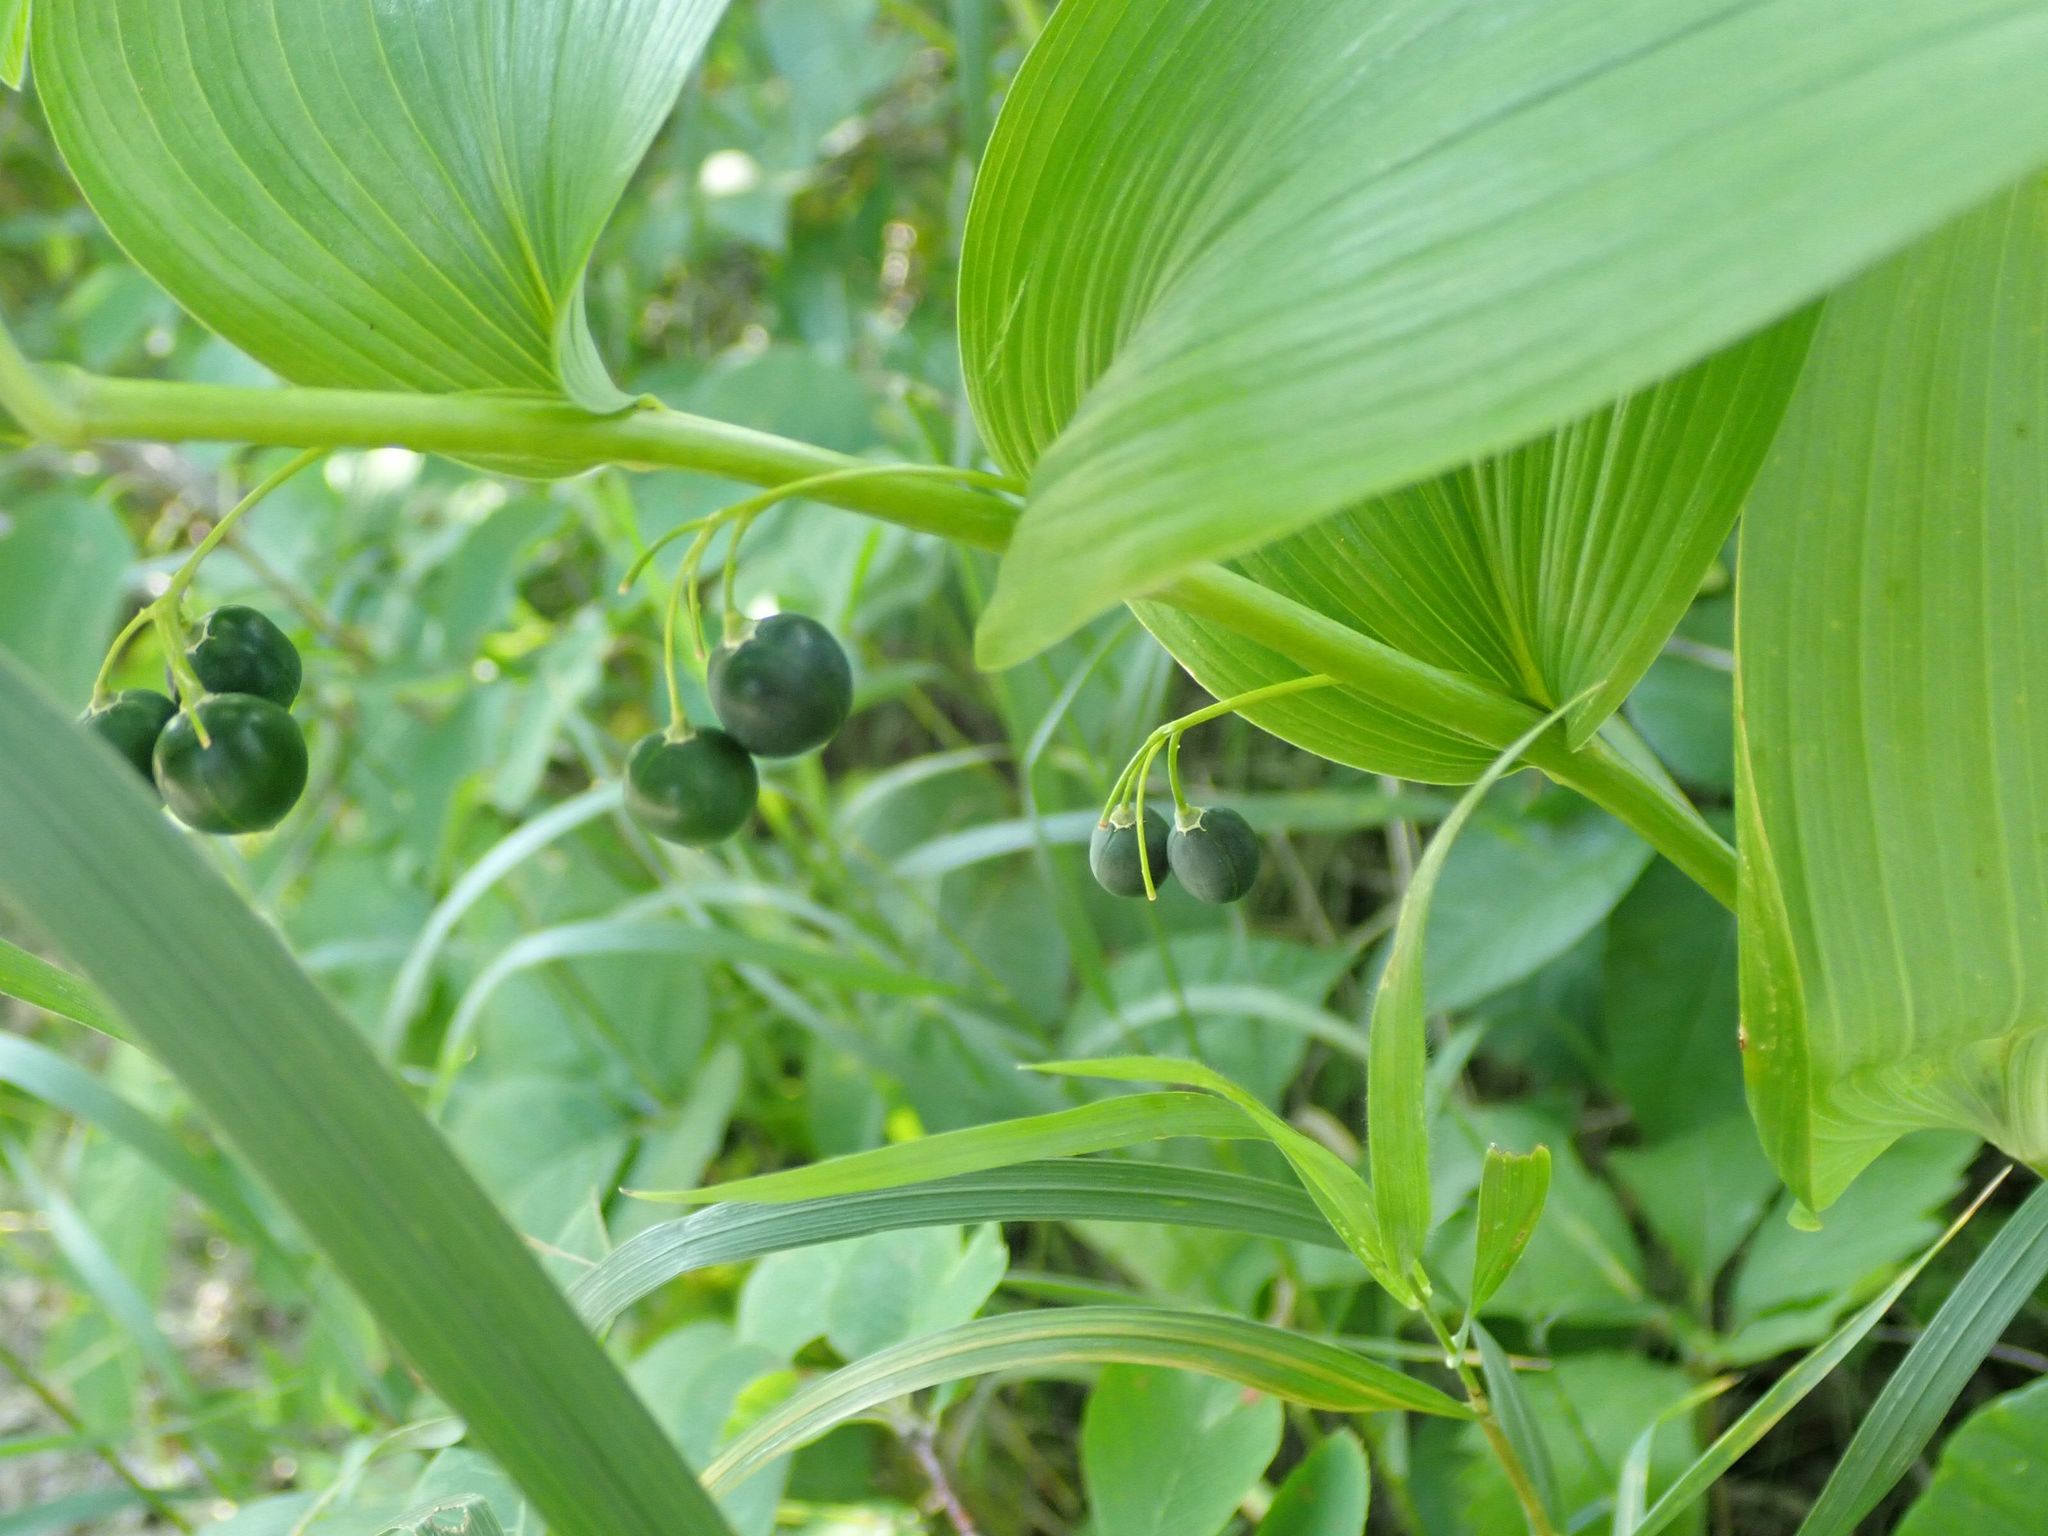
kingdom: Plantae
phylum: Tracheophyta
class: Liliopsida
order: Asparagales
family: Asparagaceae
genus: Polygonatum
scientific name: Polygonatum biflorum
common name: American solomon's-seal
